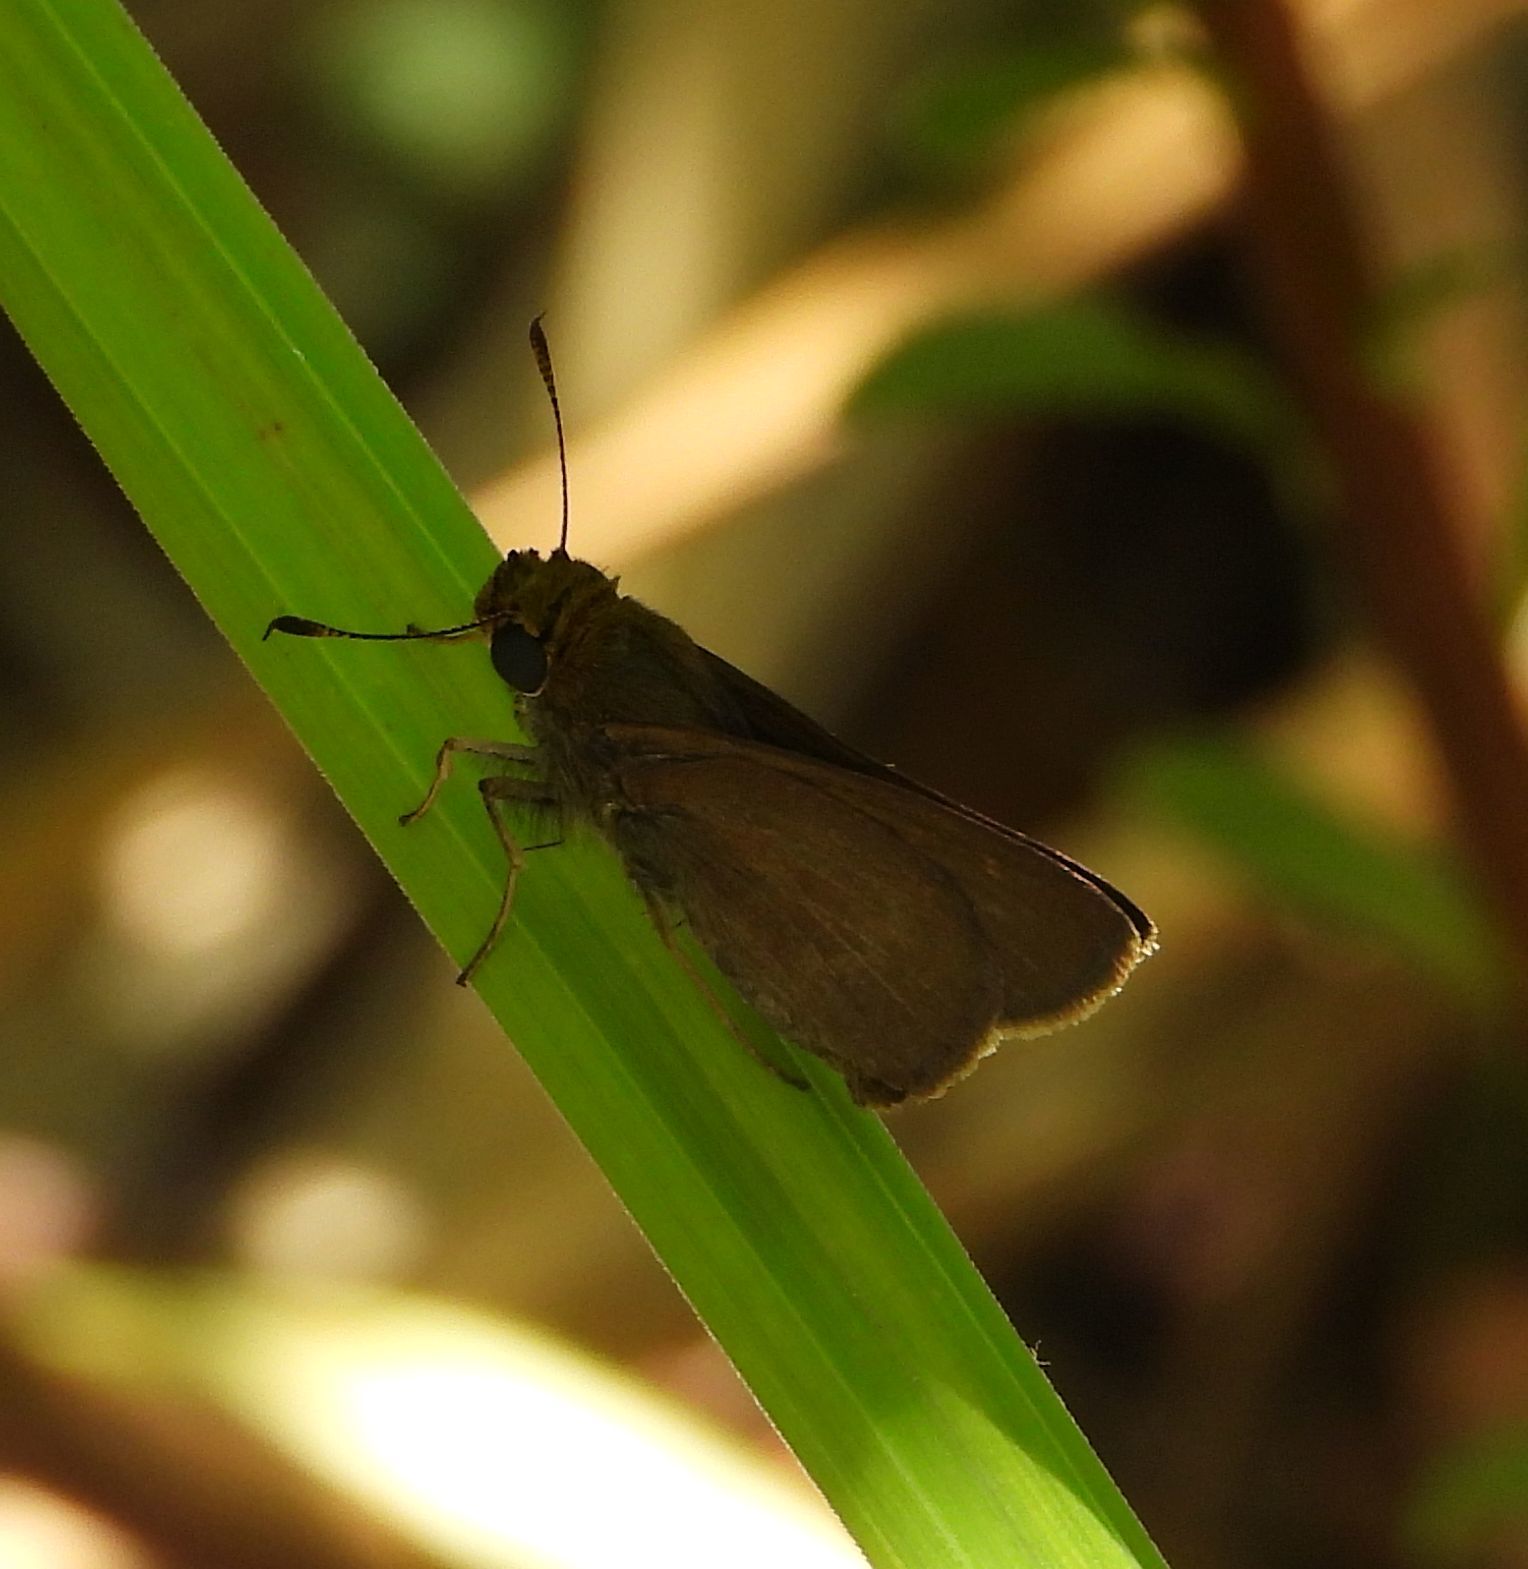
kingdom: Animalia
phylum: Arthropoda
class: Insecta
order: Lepidoptera
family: Hesperiidae
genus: Euphyes
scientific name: Euphyes vestris
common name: Dun skipper
